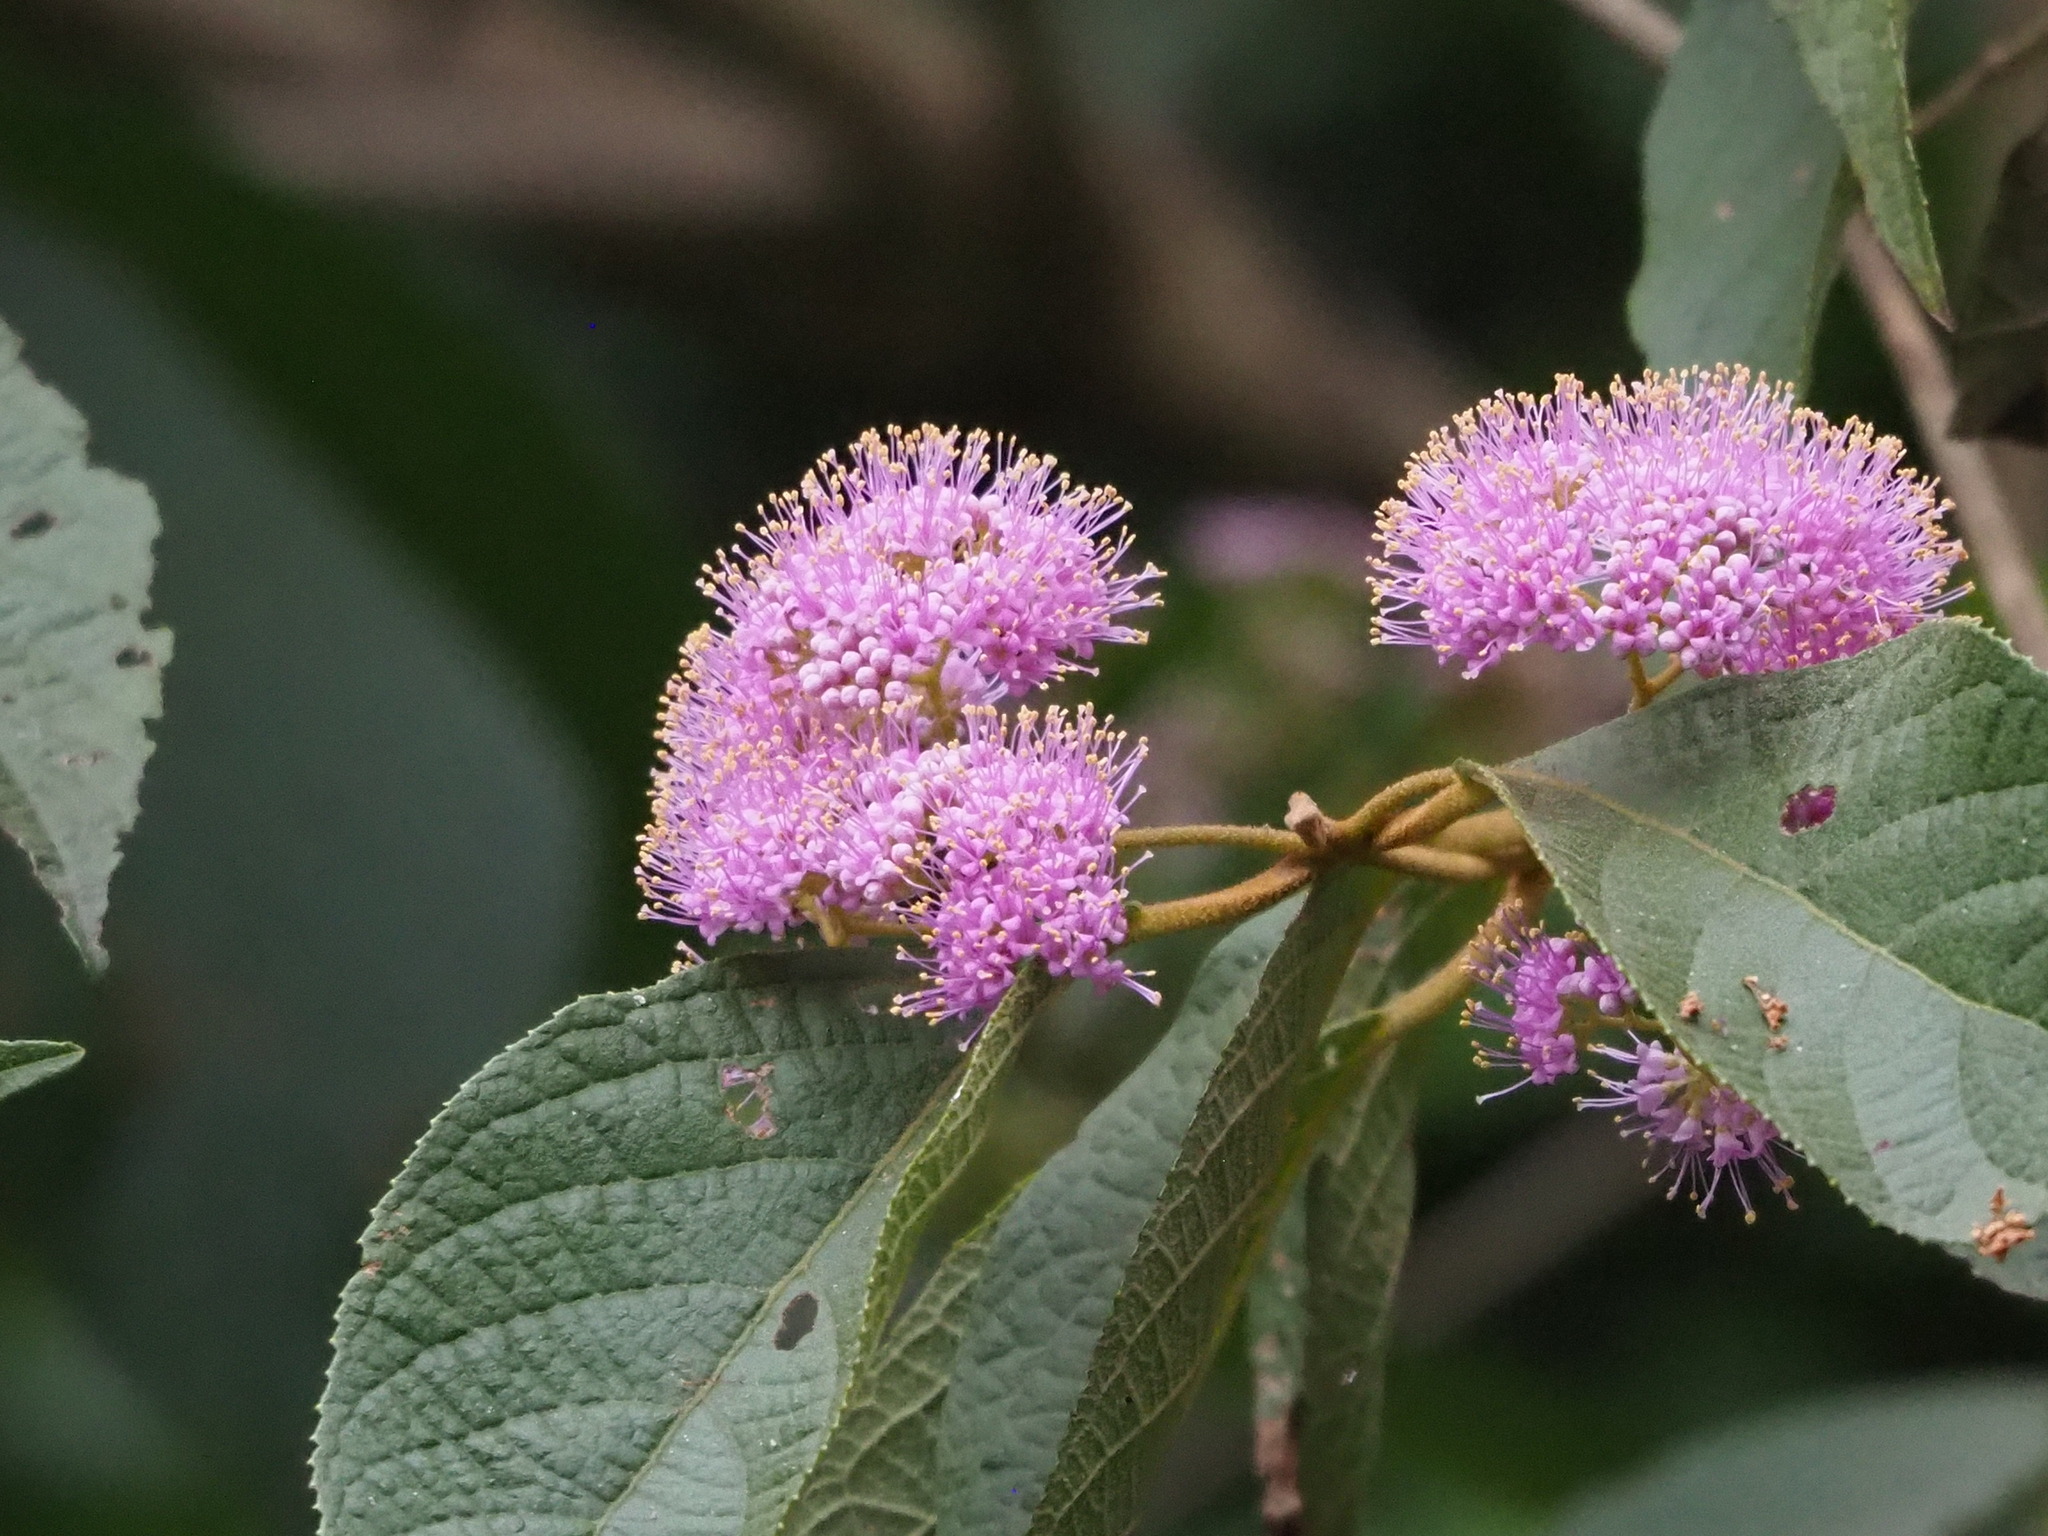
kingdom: Plantae
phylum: Tracheophyta
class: Magnoliopsida
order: Lamiales
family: Lamiaceae
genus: Callicarpa
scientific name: Callicarpa pedunculata
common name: Velvetleaf
